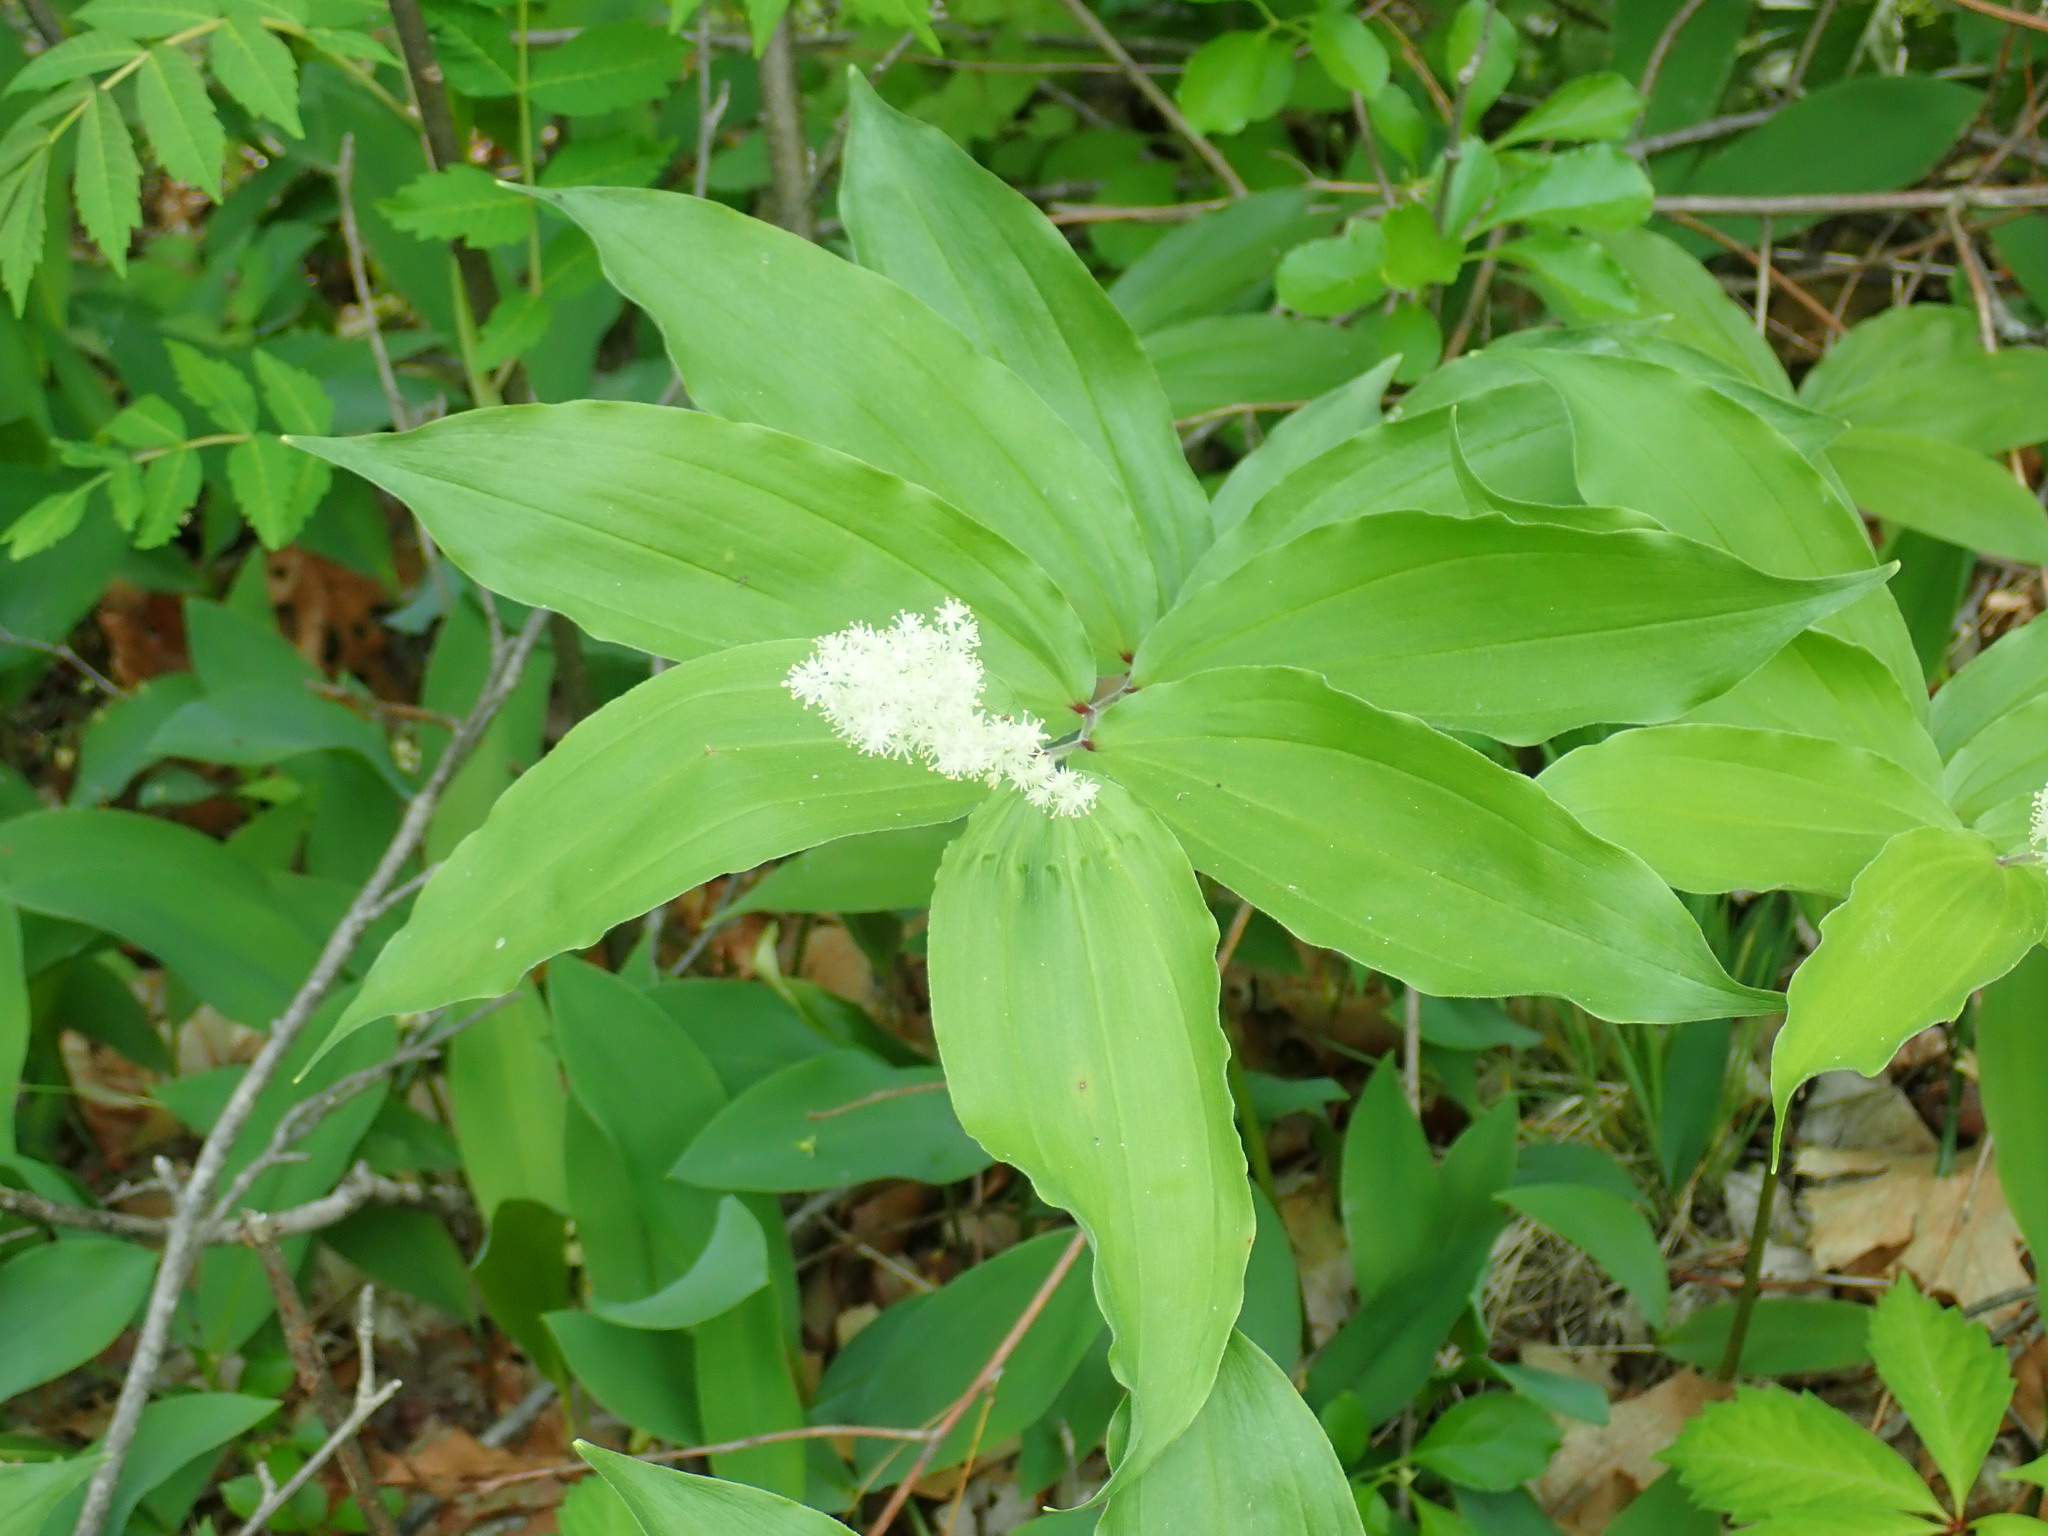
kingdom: Plantae
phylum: Tracheophyta
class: Liliopsida
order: Asparagales
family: Asparagaceae
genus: Maianthemum
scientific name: Maianthemum racemosum
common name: False spikenard
